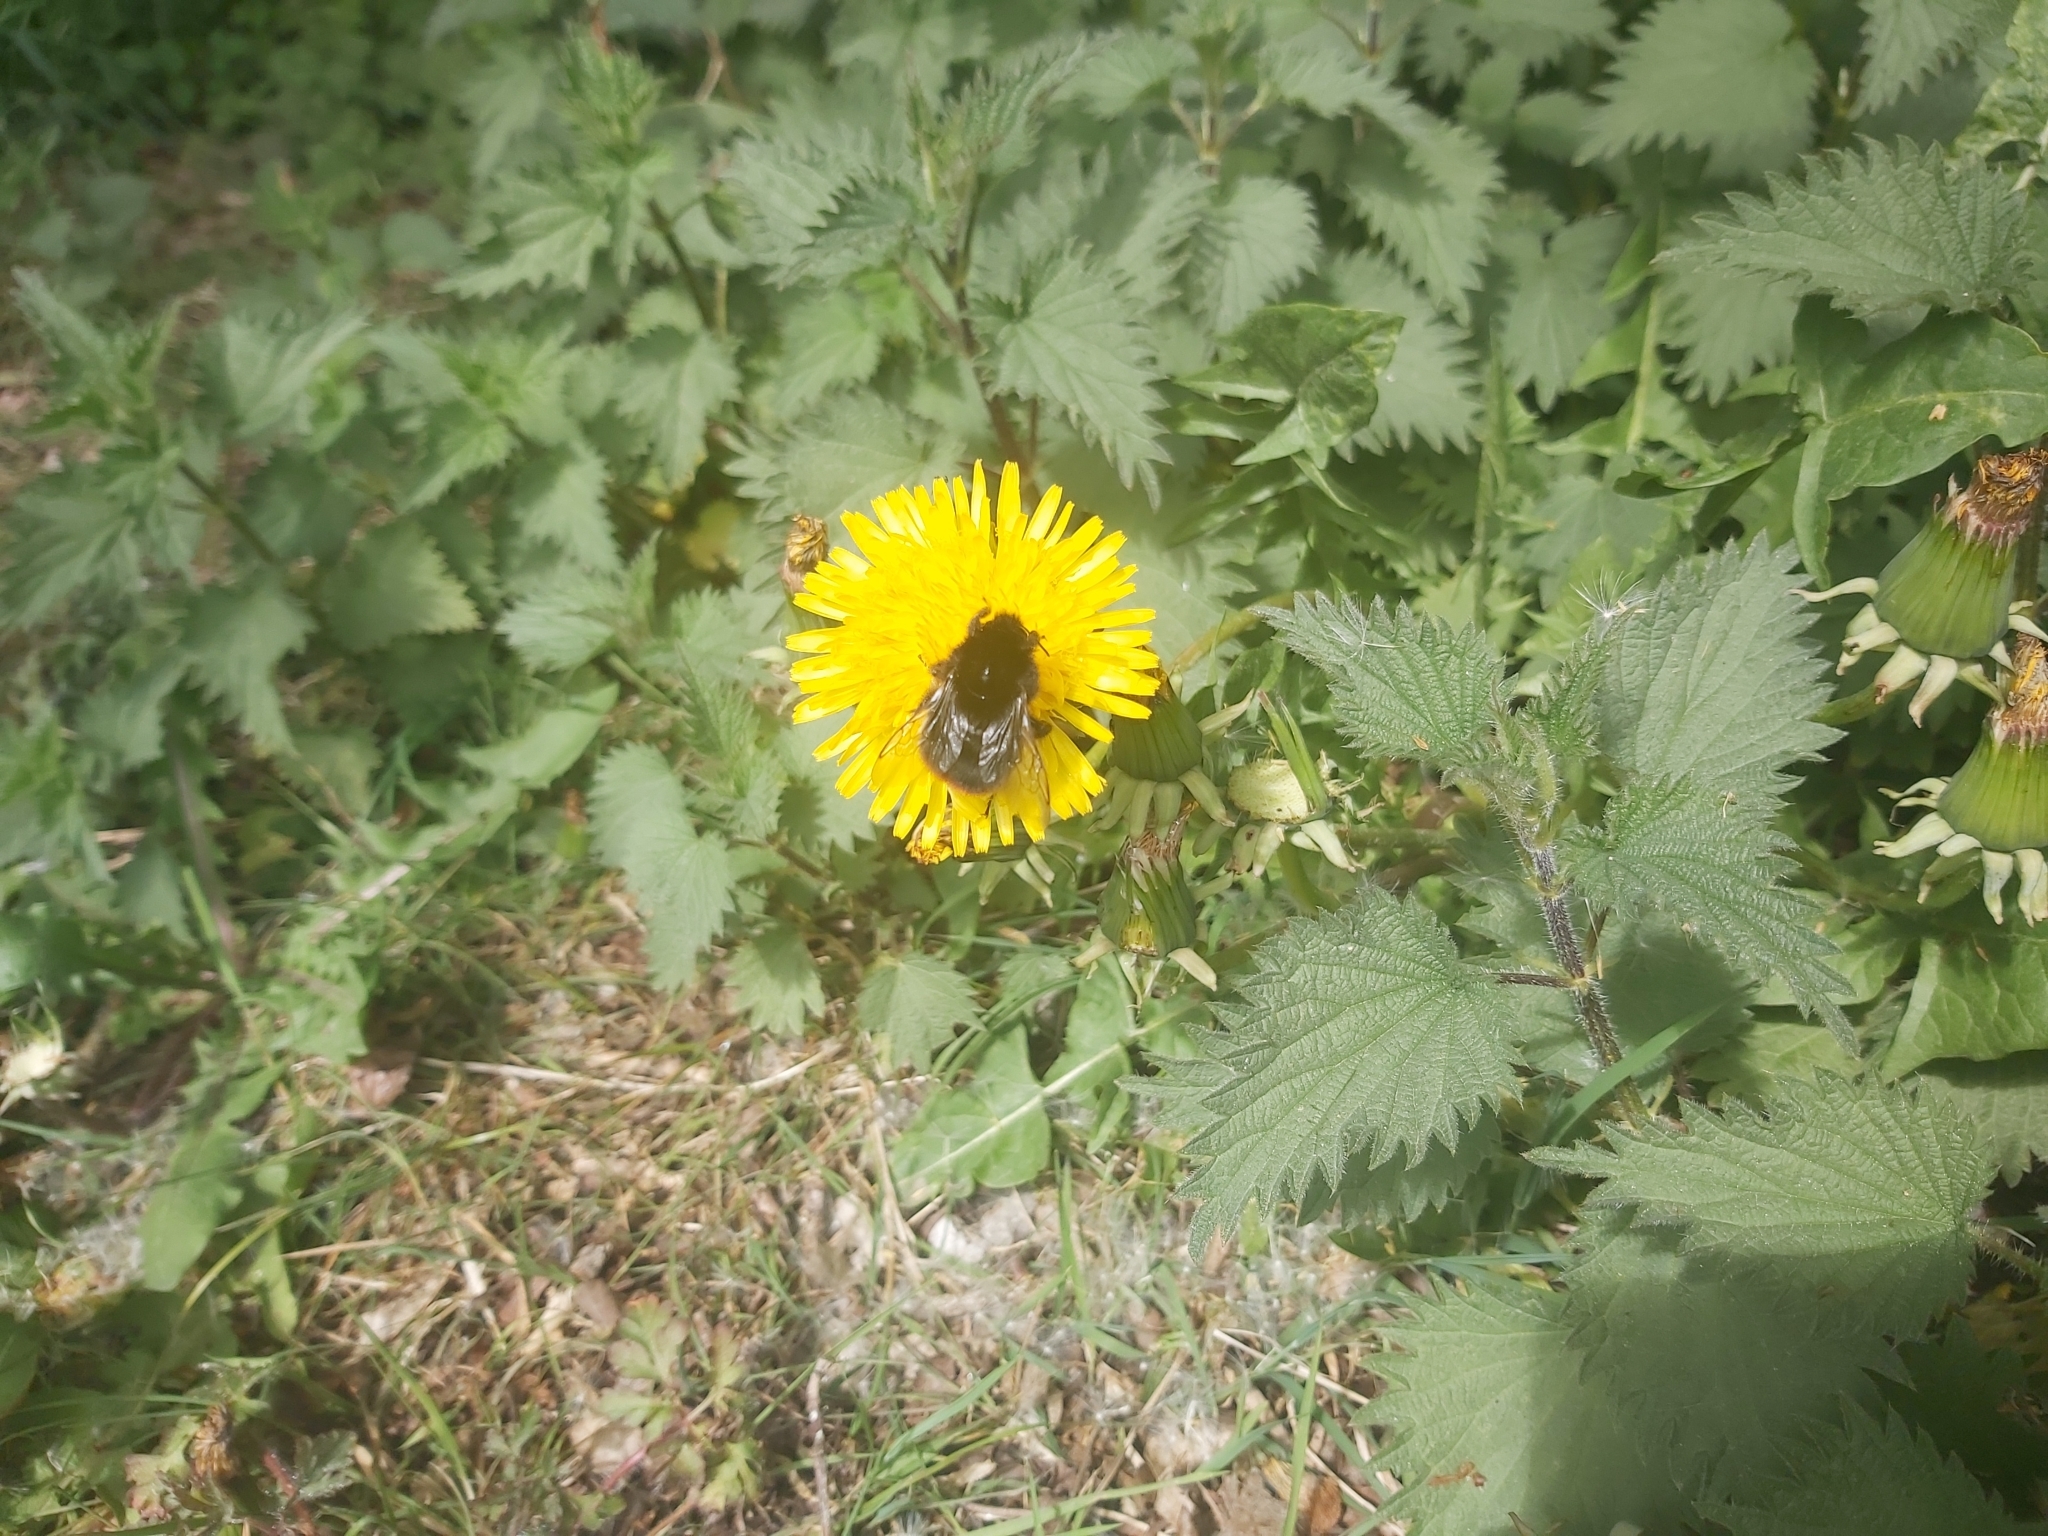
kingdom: Animalia
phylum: Arthropoda
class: Insecta
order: Hymenoptera
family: Apidae
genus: Bombus
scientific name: Bombus lapidarius
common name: Large red-tailed humble-bee
